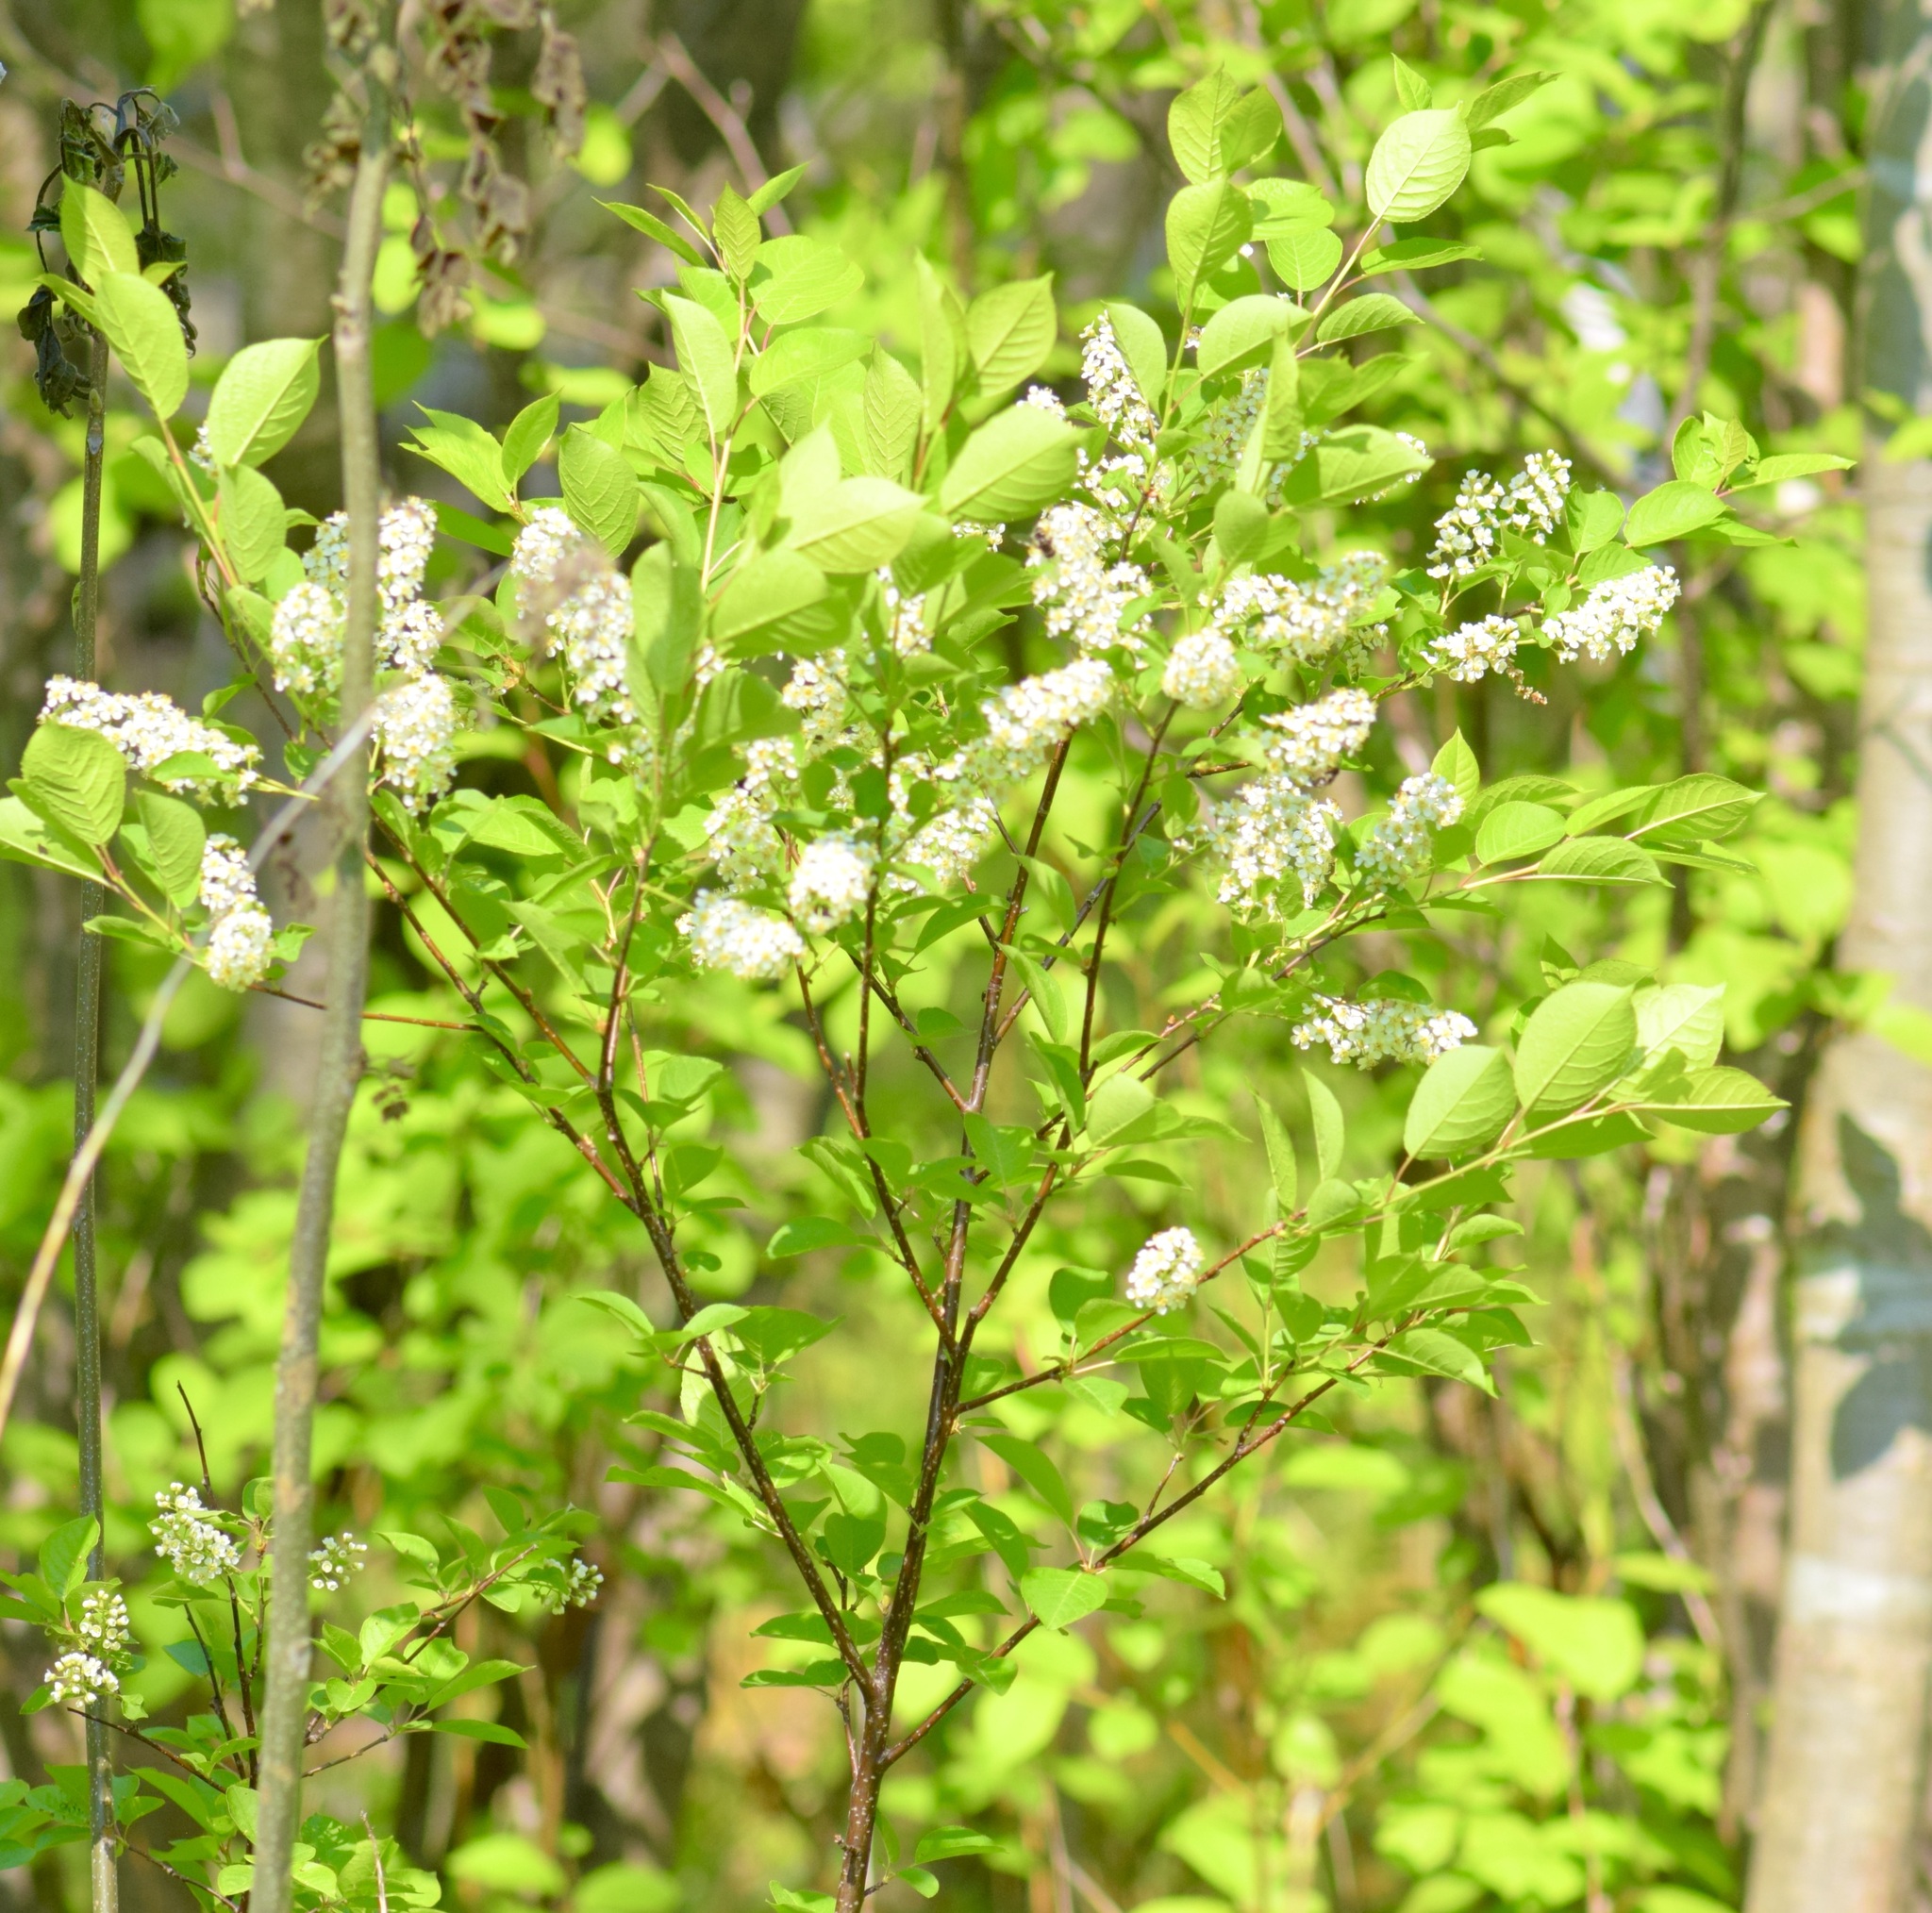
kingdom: Plantae
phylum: Tracheophyta
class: Magnoliopsida
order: Rosales
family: Rosaceae
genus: Prunus
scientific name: Prunus virginiana
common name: Chokecherry
